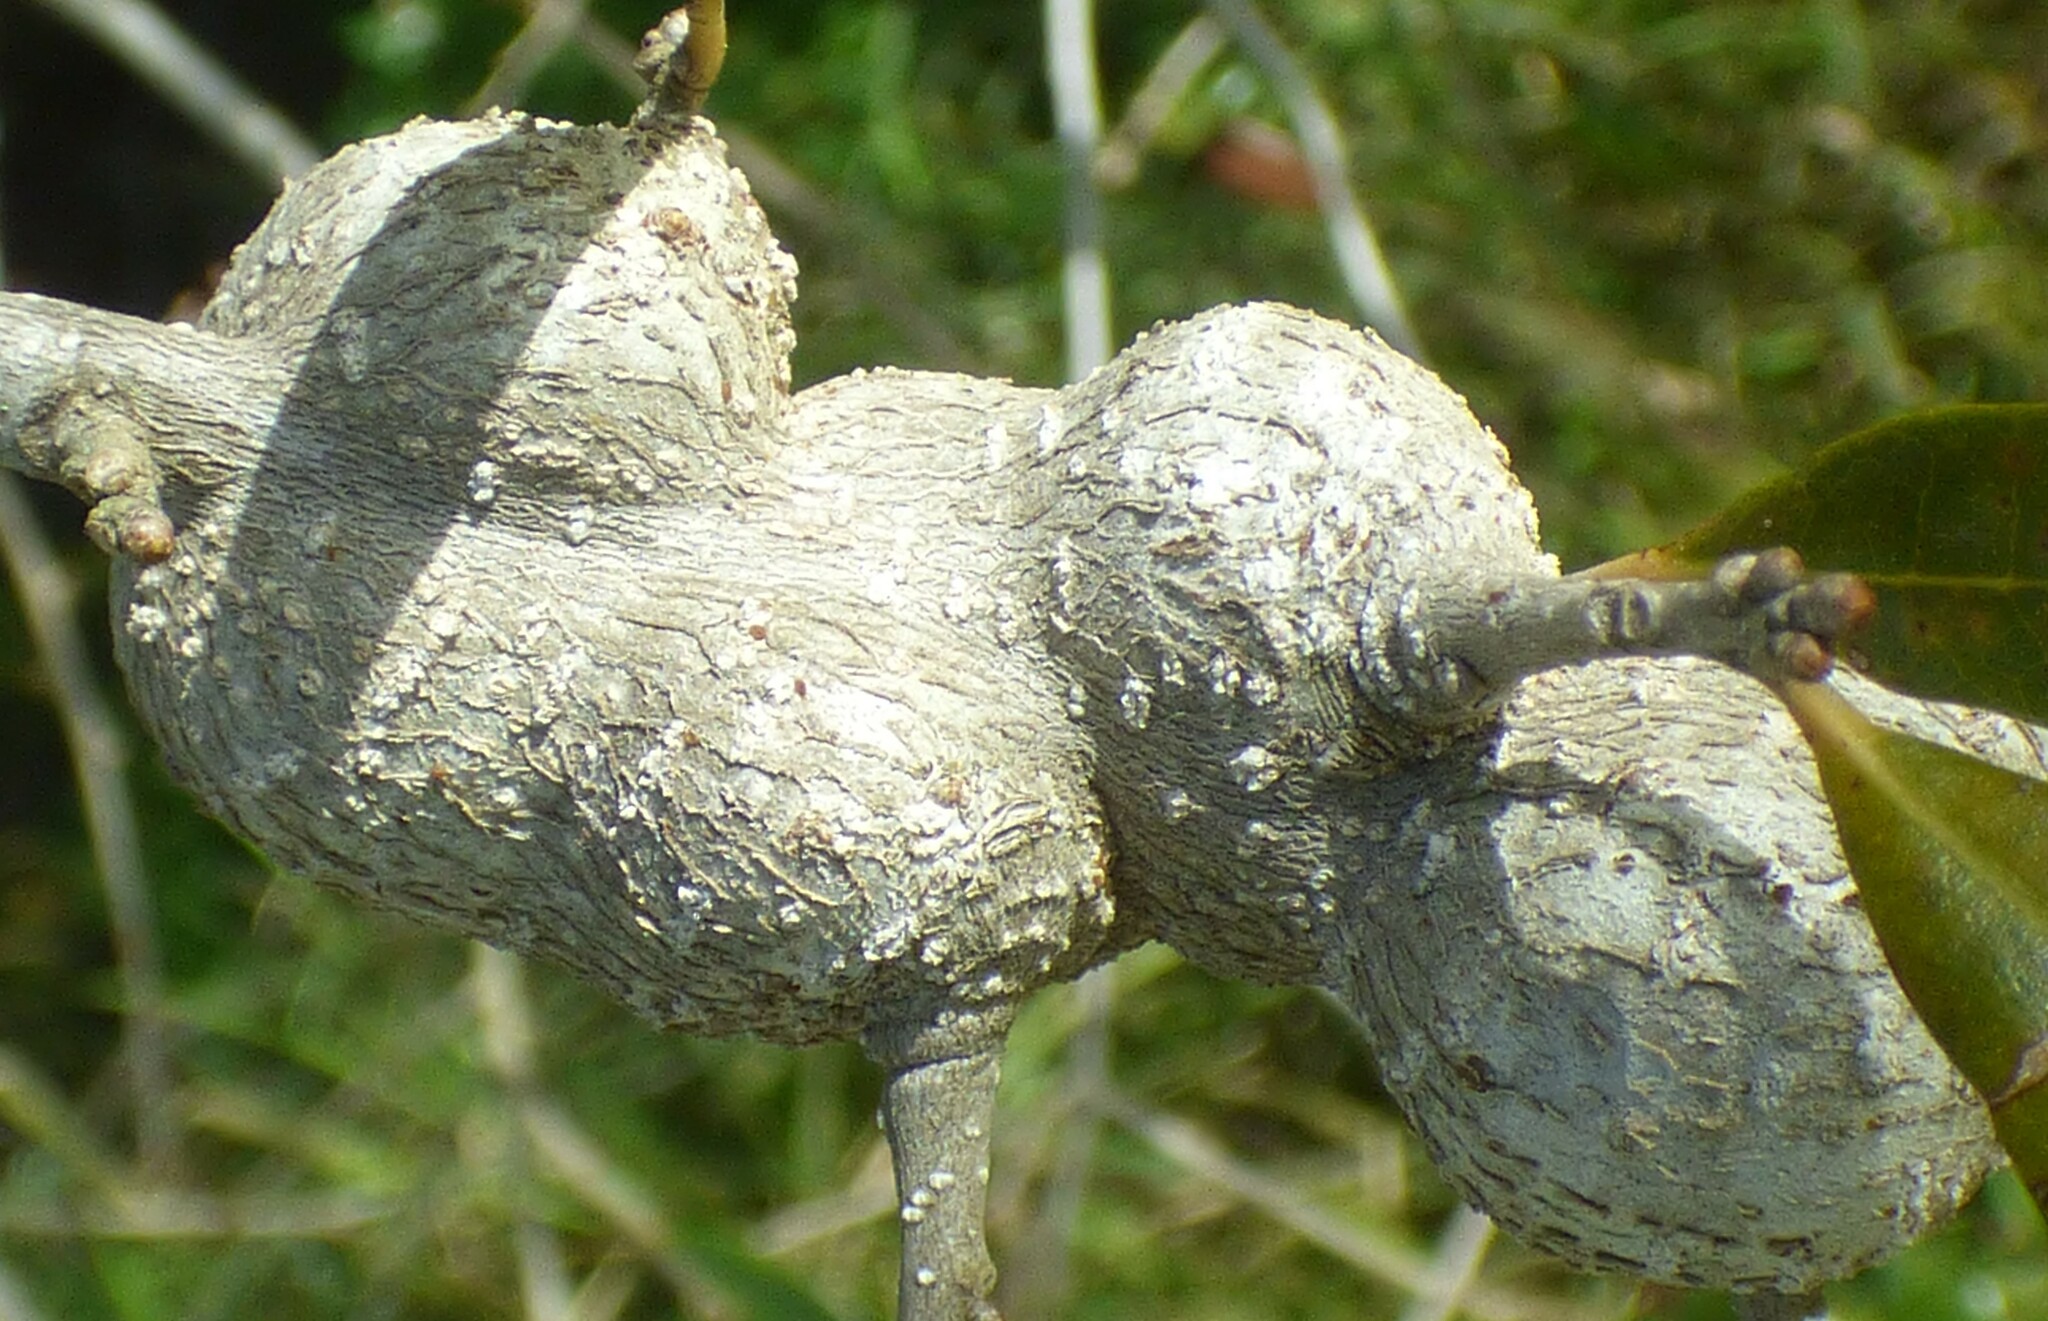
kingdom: Animalia
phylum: Arthropoda
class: Insecta
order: Hymenoptera
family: Cynipidae
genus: Callirhytis
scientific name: Callirhytis
